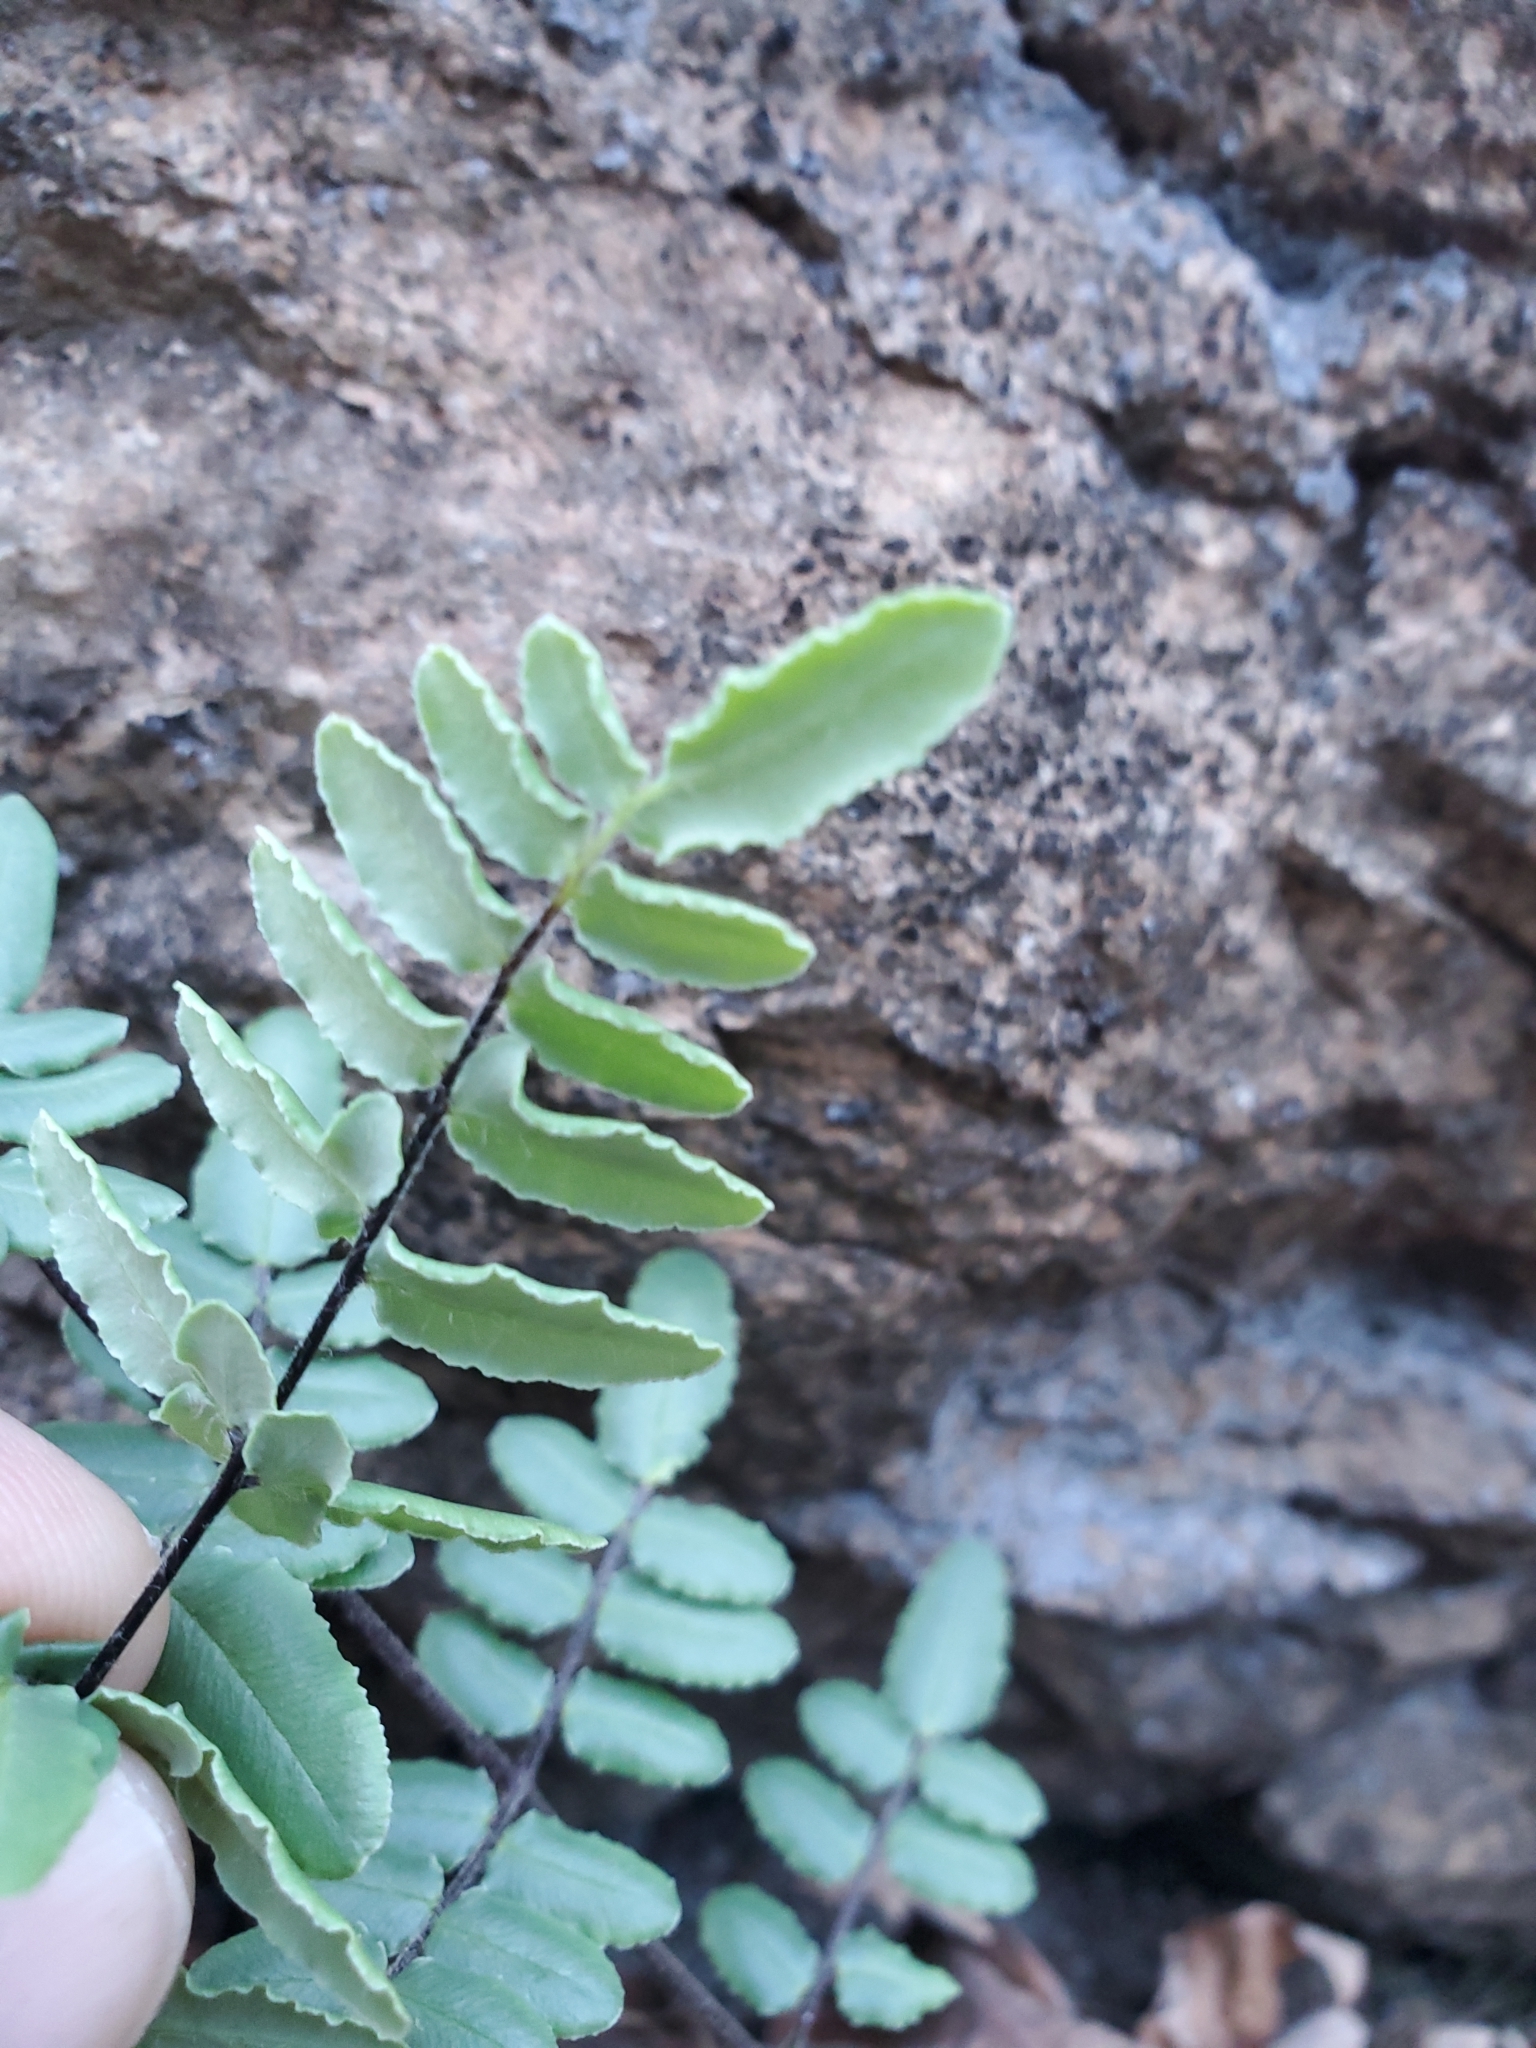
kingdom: Plantae
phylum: Tracheophyta
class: Polypodiopsida
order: Polypodiales
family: Pteridaceae
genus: Pellaea
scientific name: Pellaea atropurpurea
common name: Hairy cliffbrake
